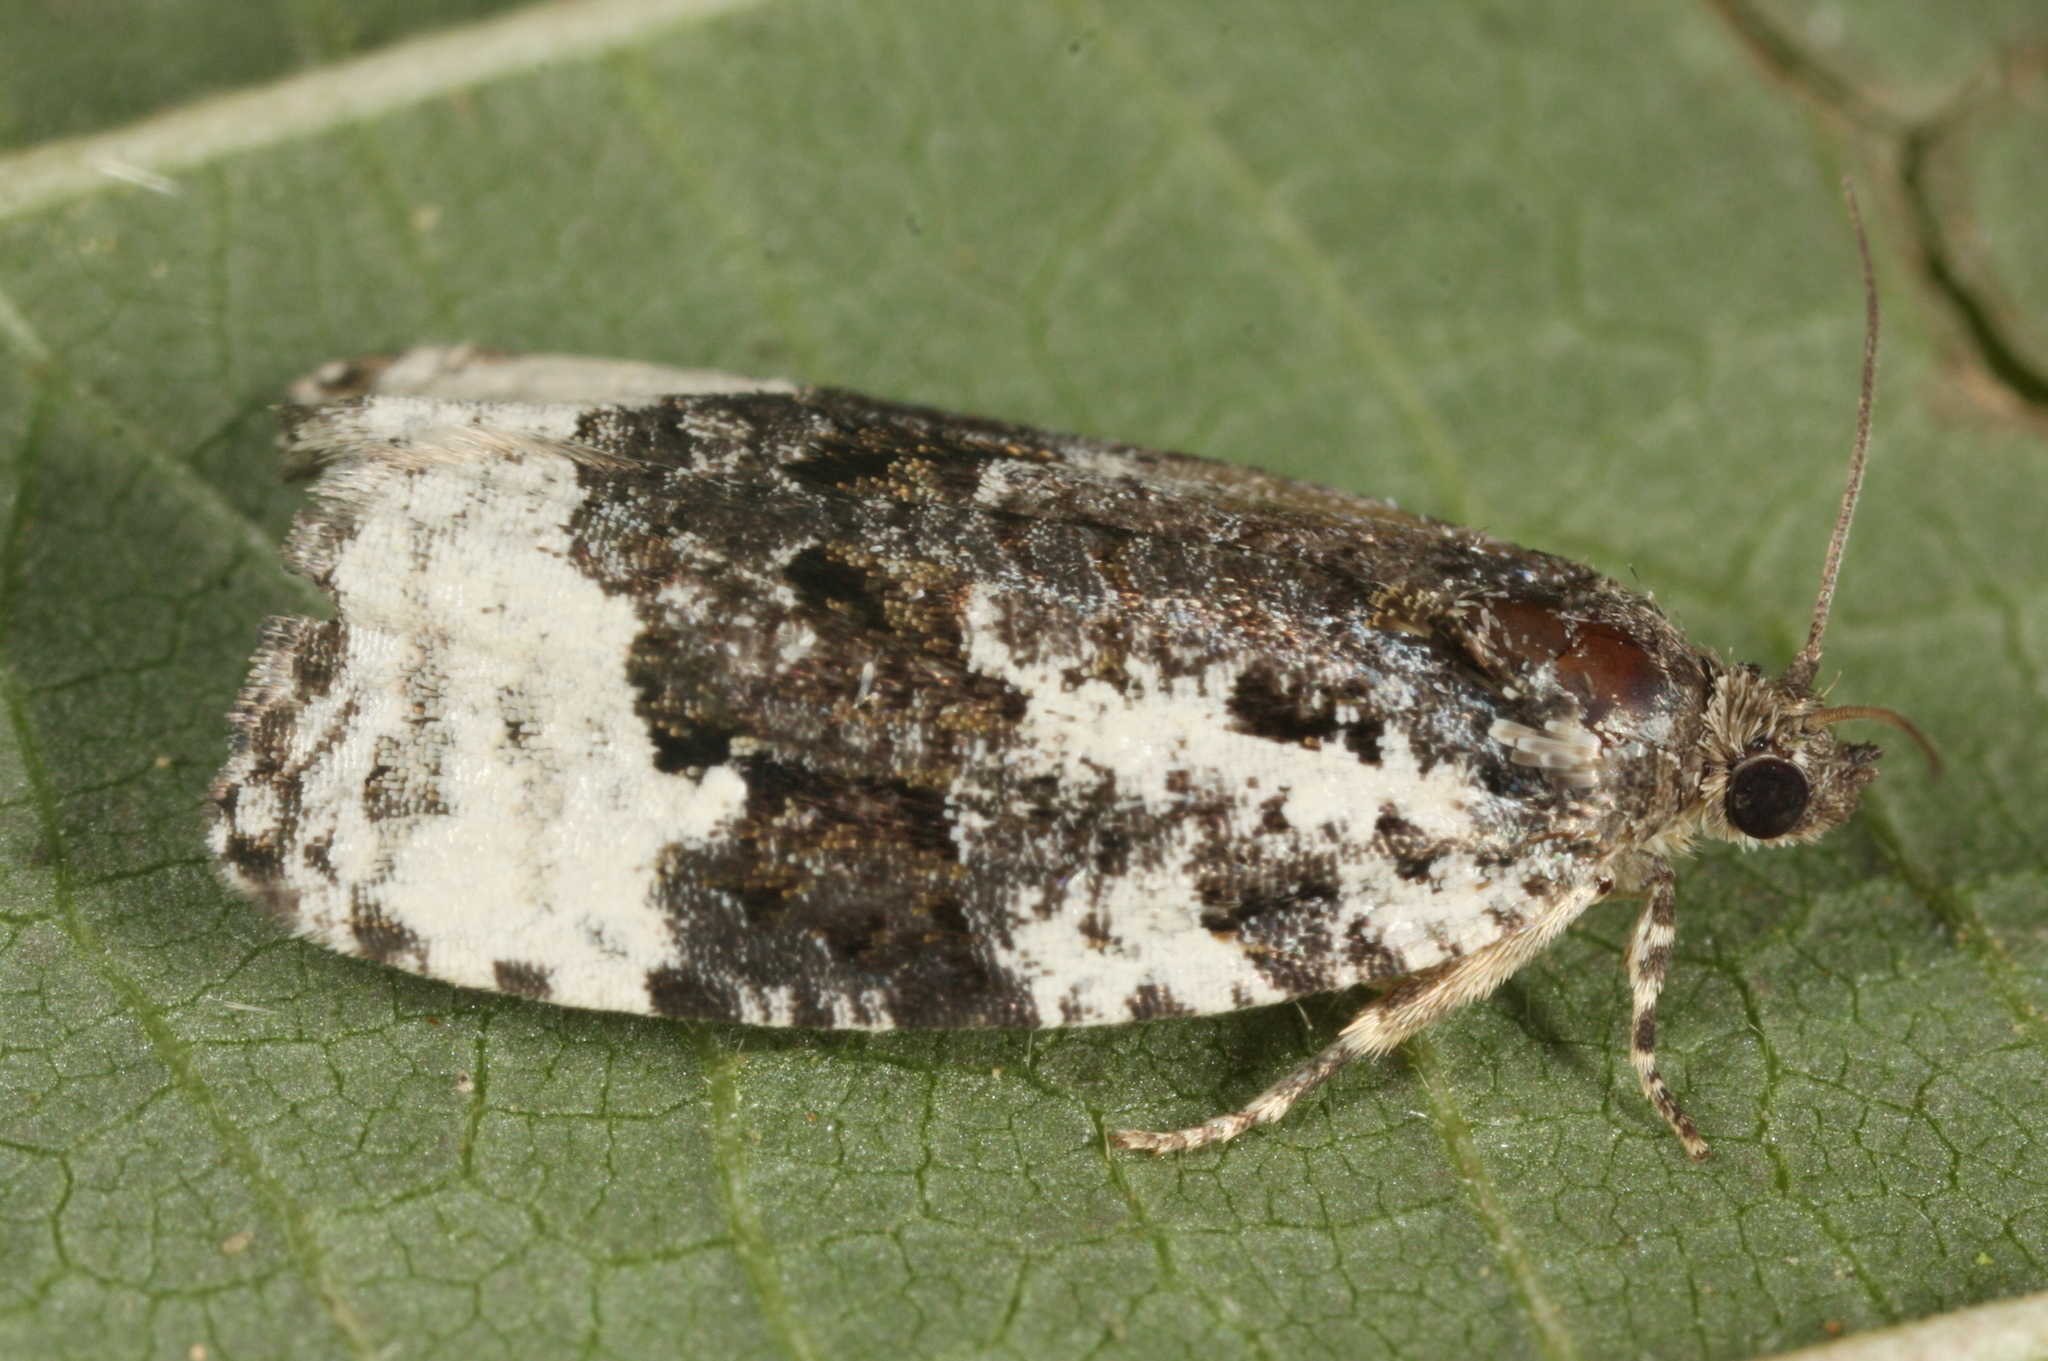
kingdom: Animalia
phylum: Arthropoda
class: Insecta
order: Lepidoptera
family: Tortricidae
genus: Apotomis
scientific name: Apotomis turbidana
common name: White-shouldered marble
